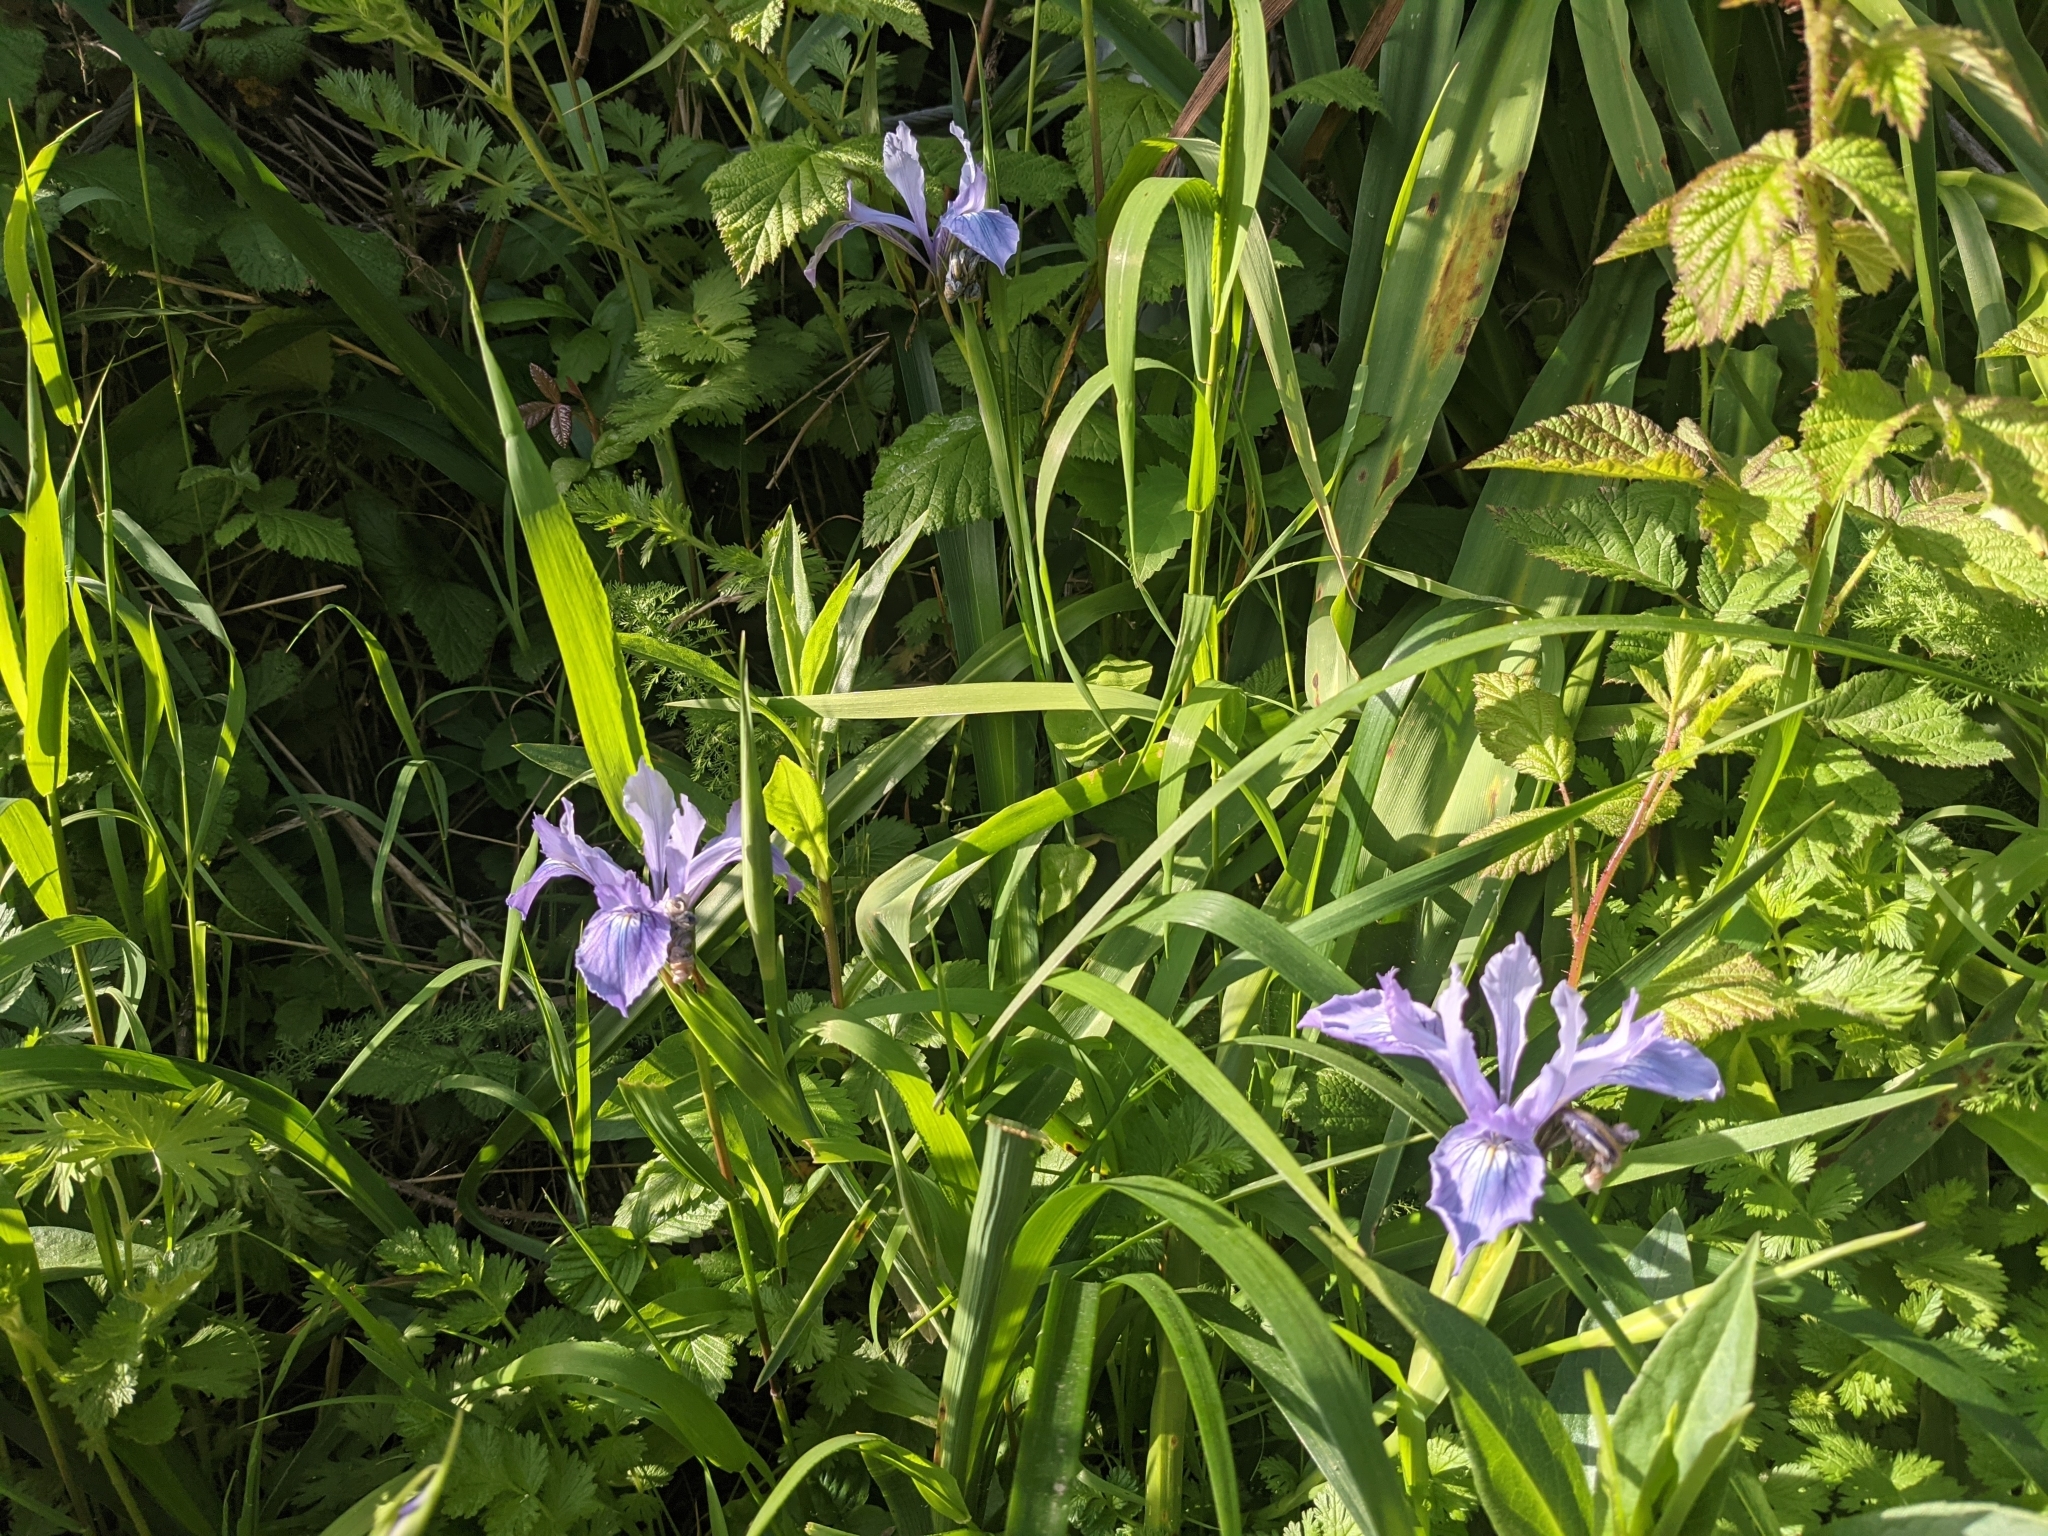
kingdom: Plantae
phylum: Tracheophyta
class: Liliopsida
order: Asparagales
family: Iridaceae
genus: Iris
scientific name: Iris douglasiana
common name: Marin iris
